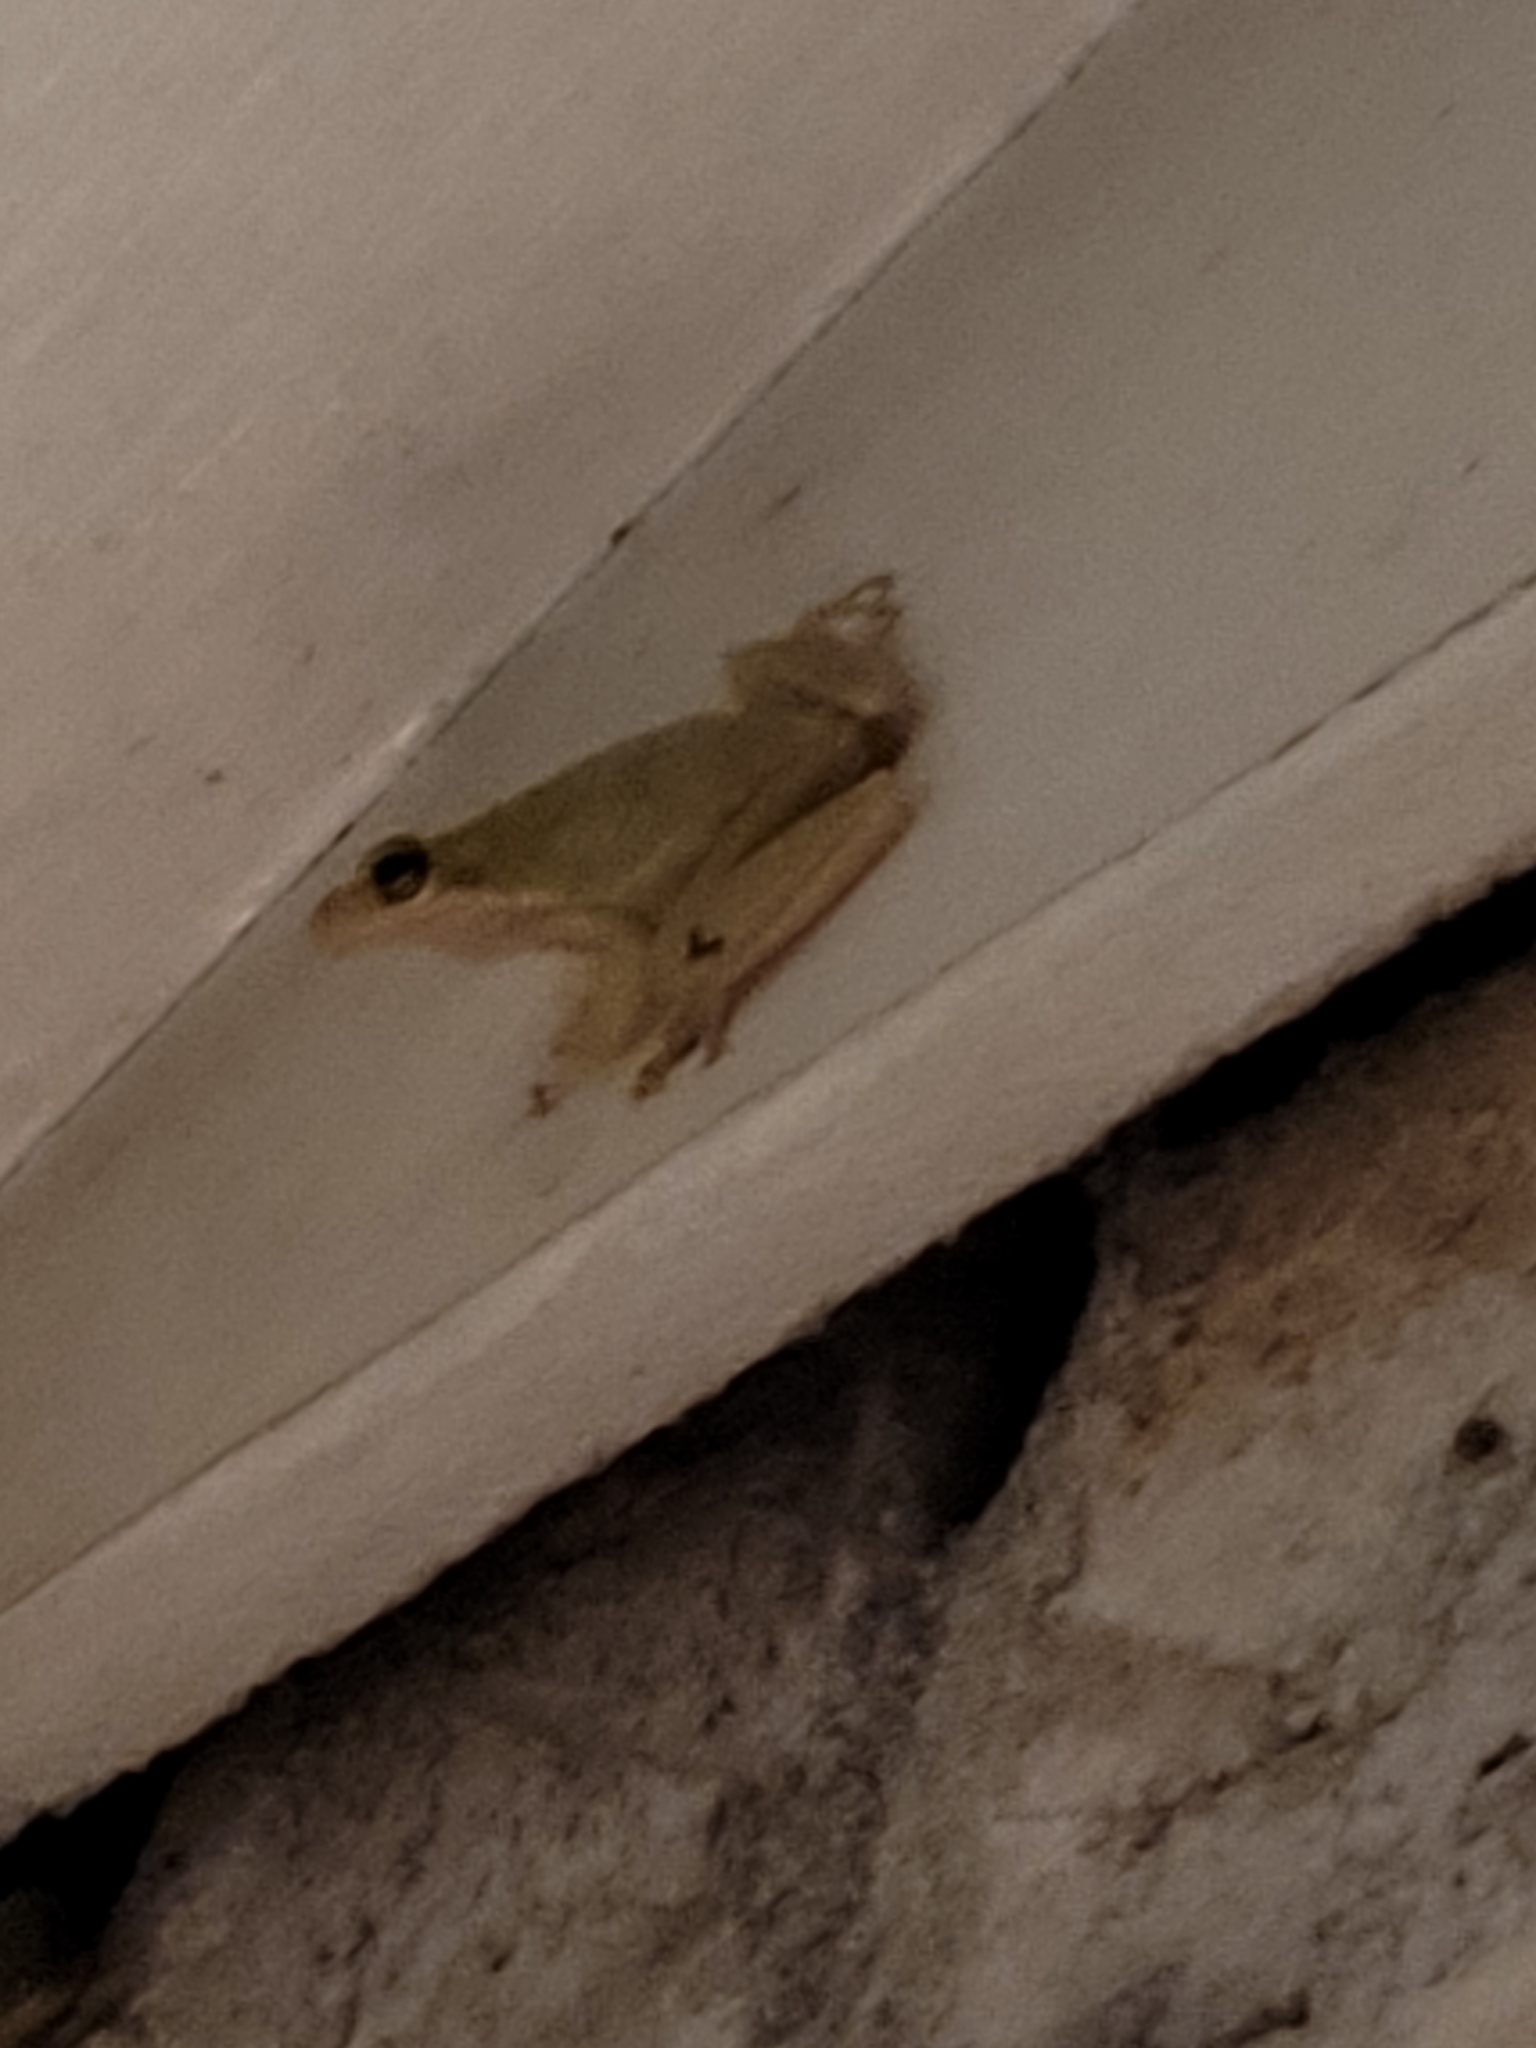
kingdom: Animalia
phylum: Chordata
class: Amphibia
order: Anura
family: Hylidae
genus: Dryophytes
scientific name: Dryophytes squirellus
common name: Squirrel treefrog
